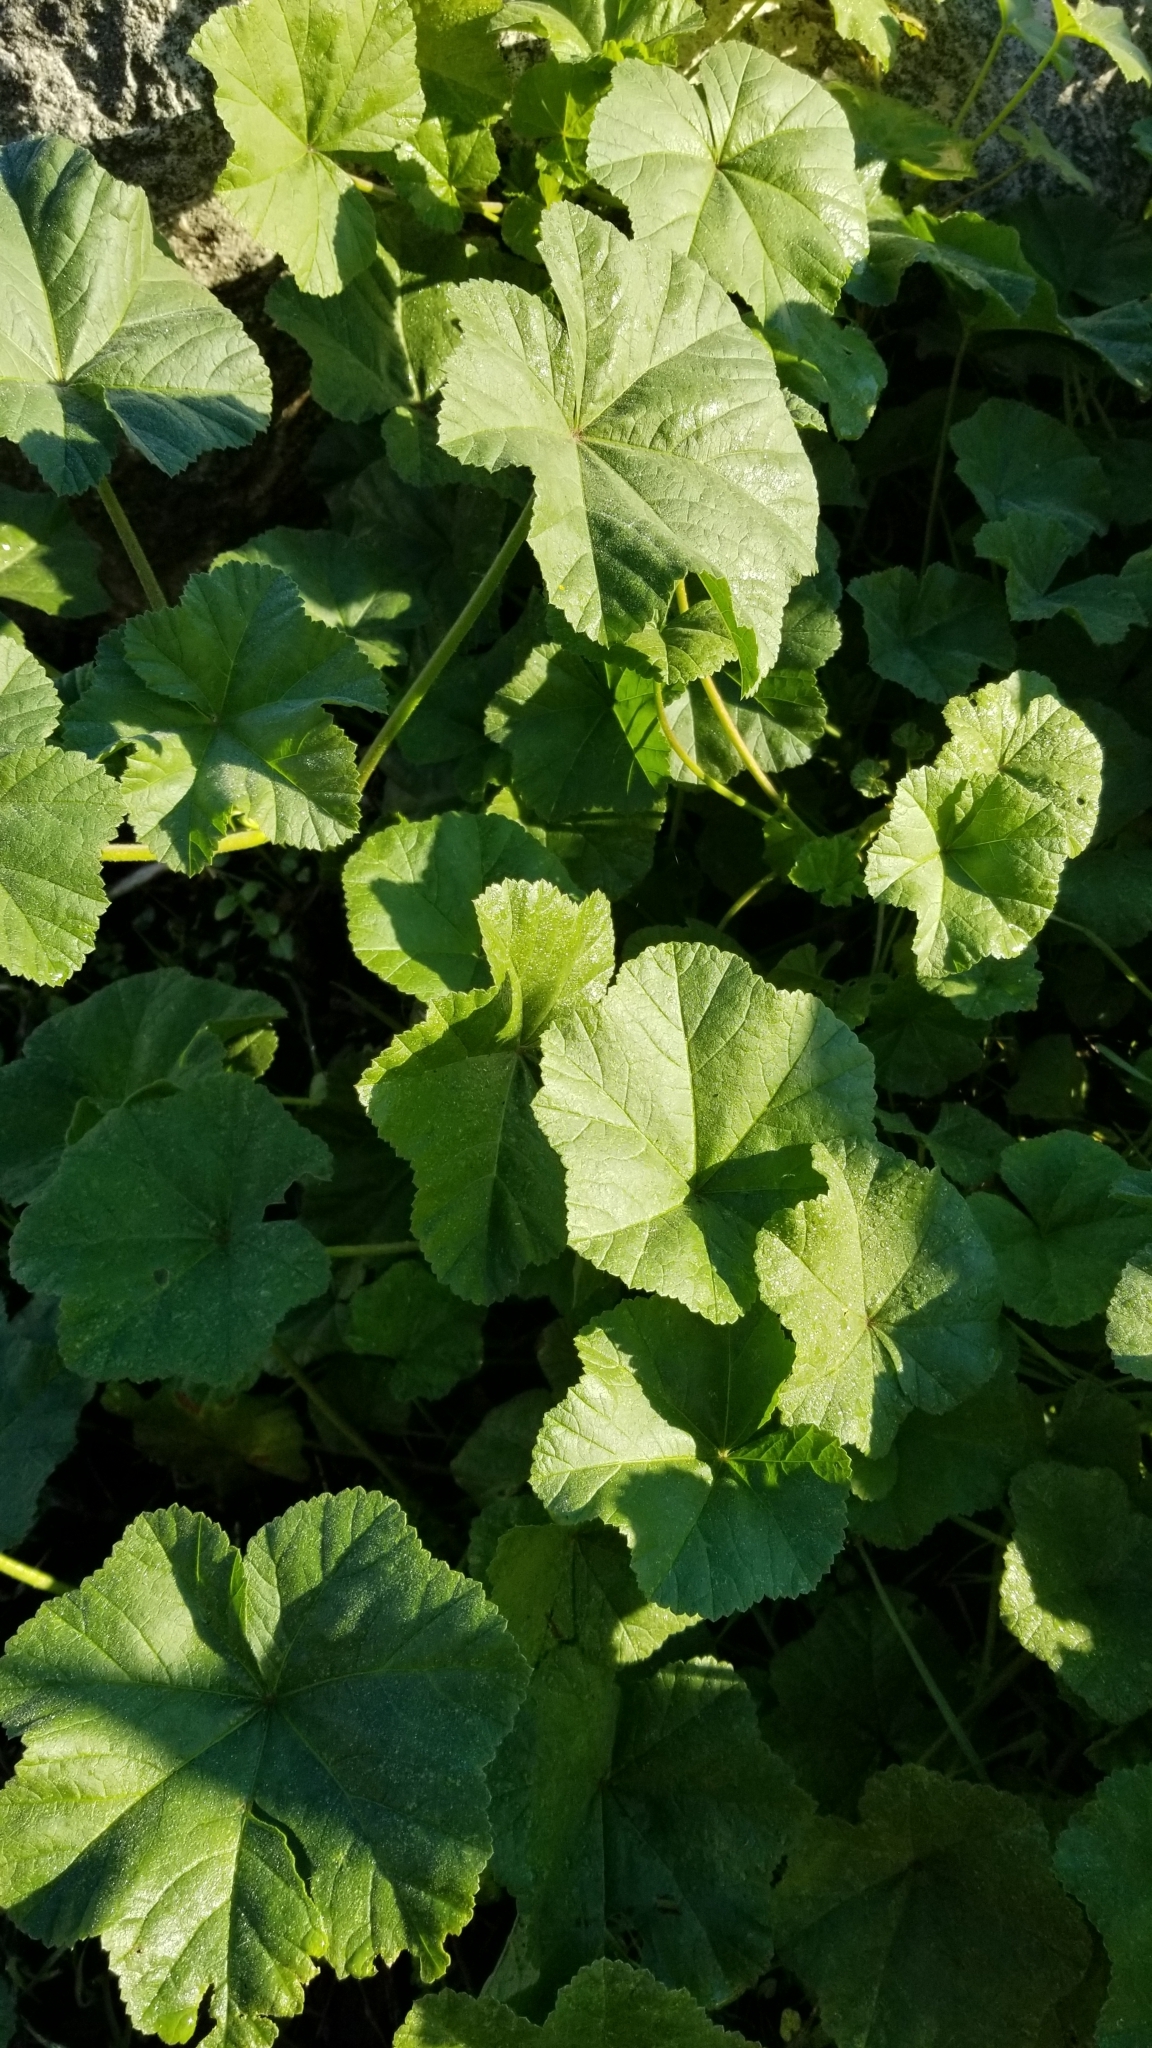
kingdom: Plantae
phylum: Tracheophyta
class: Magnoliopsida
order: Malvales
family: Malvaceae
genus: Malva
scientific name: Malva
